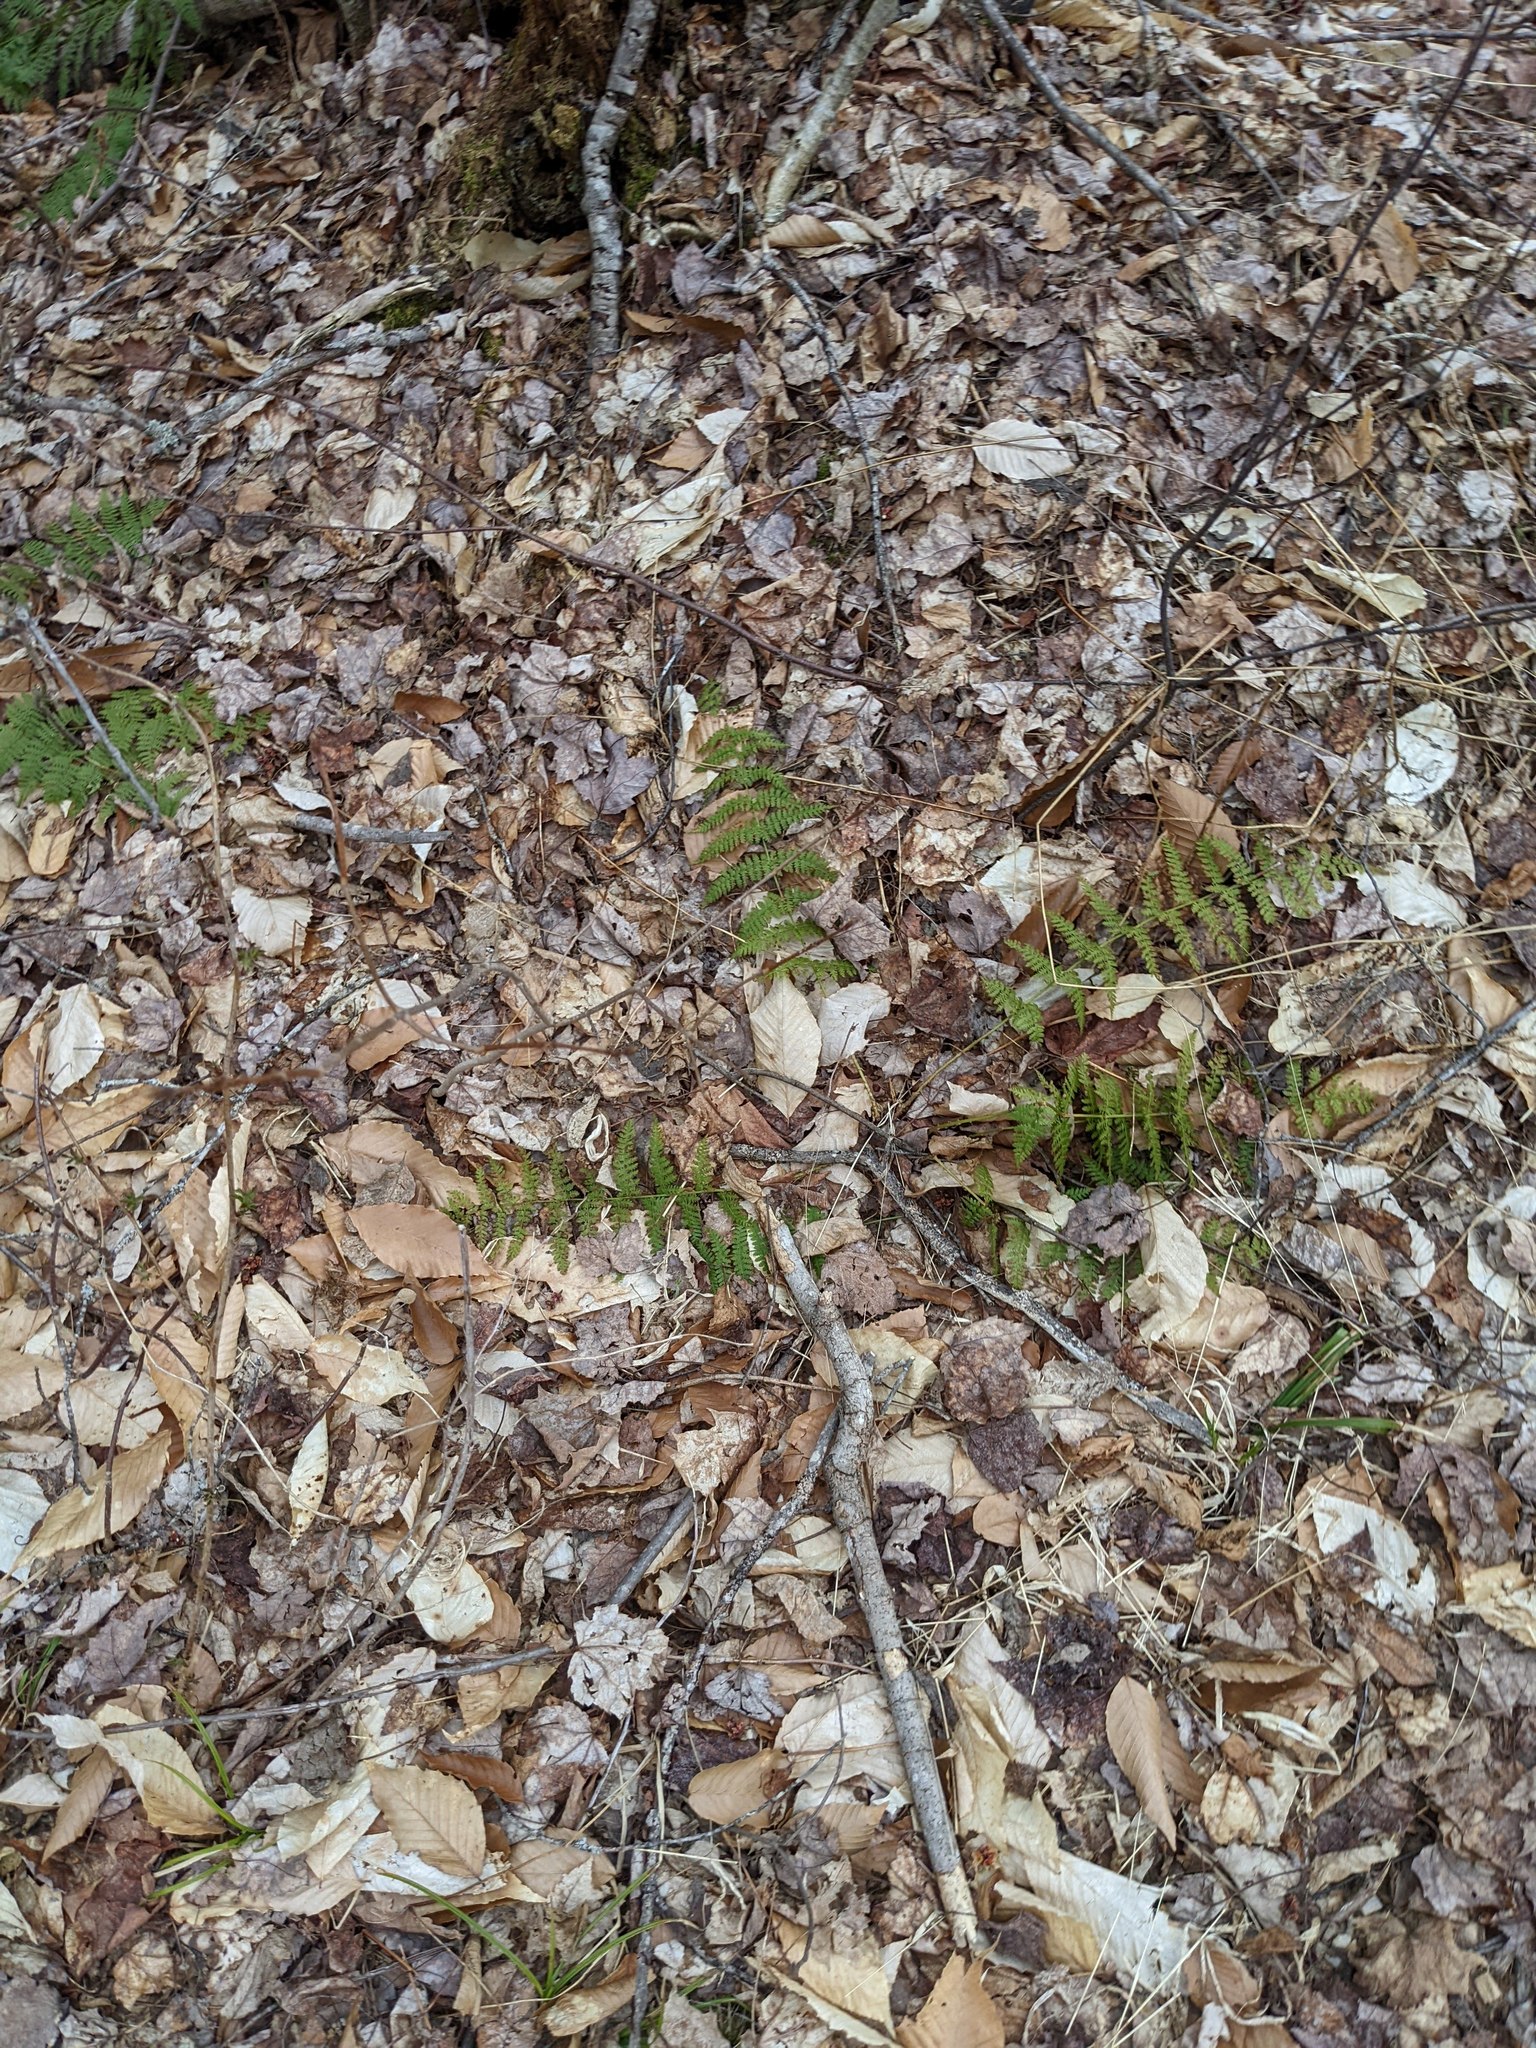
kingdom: Plantae
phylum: Tracheophyta
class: Polypodiopsida
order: Polypodiales
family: Dryopteridaceae
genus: Dryopteris
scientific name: Dryopteris intermedia
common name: Evergreen wood fern
